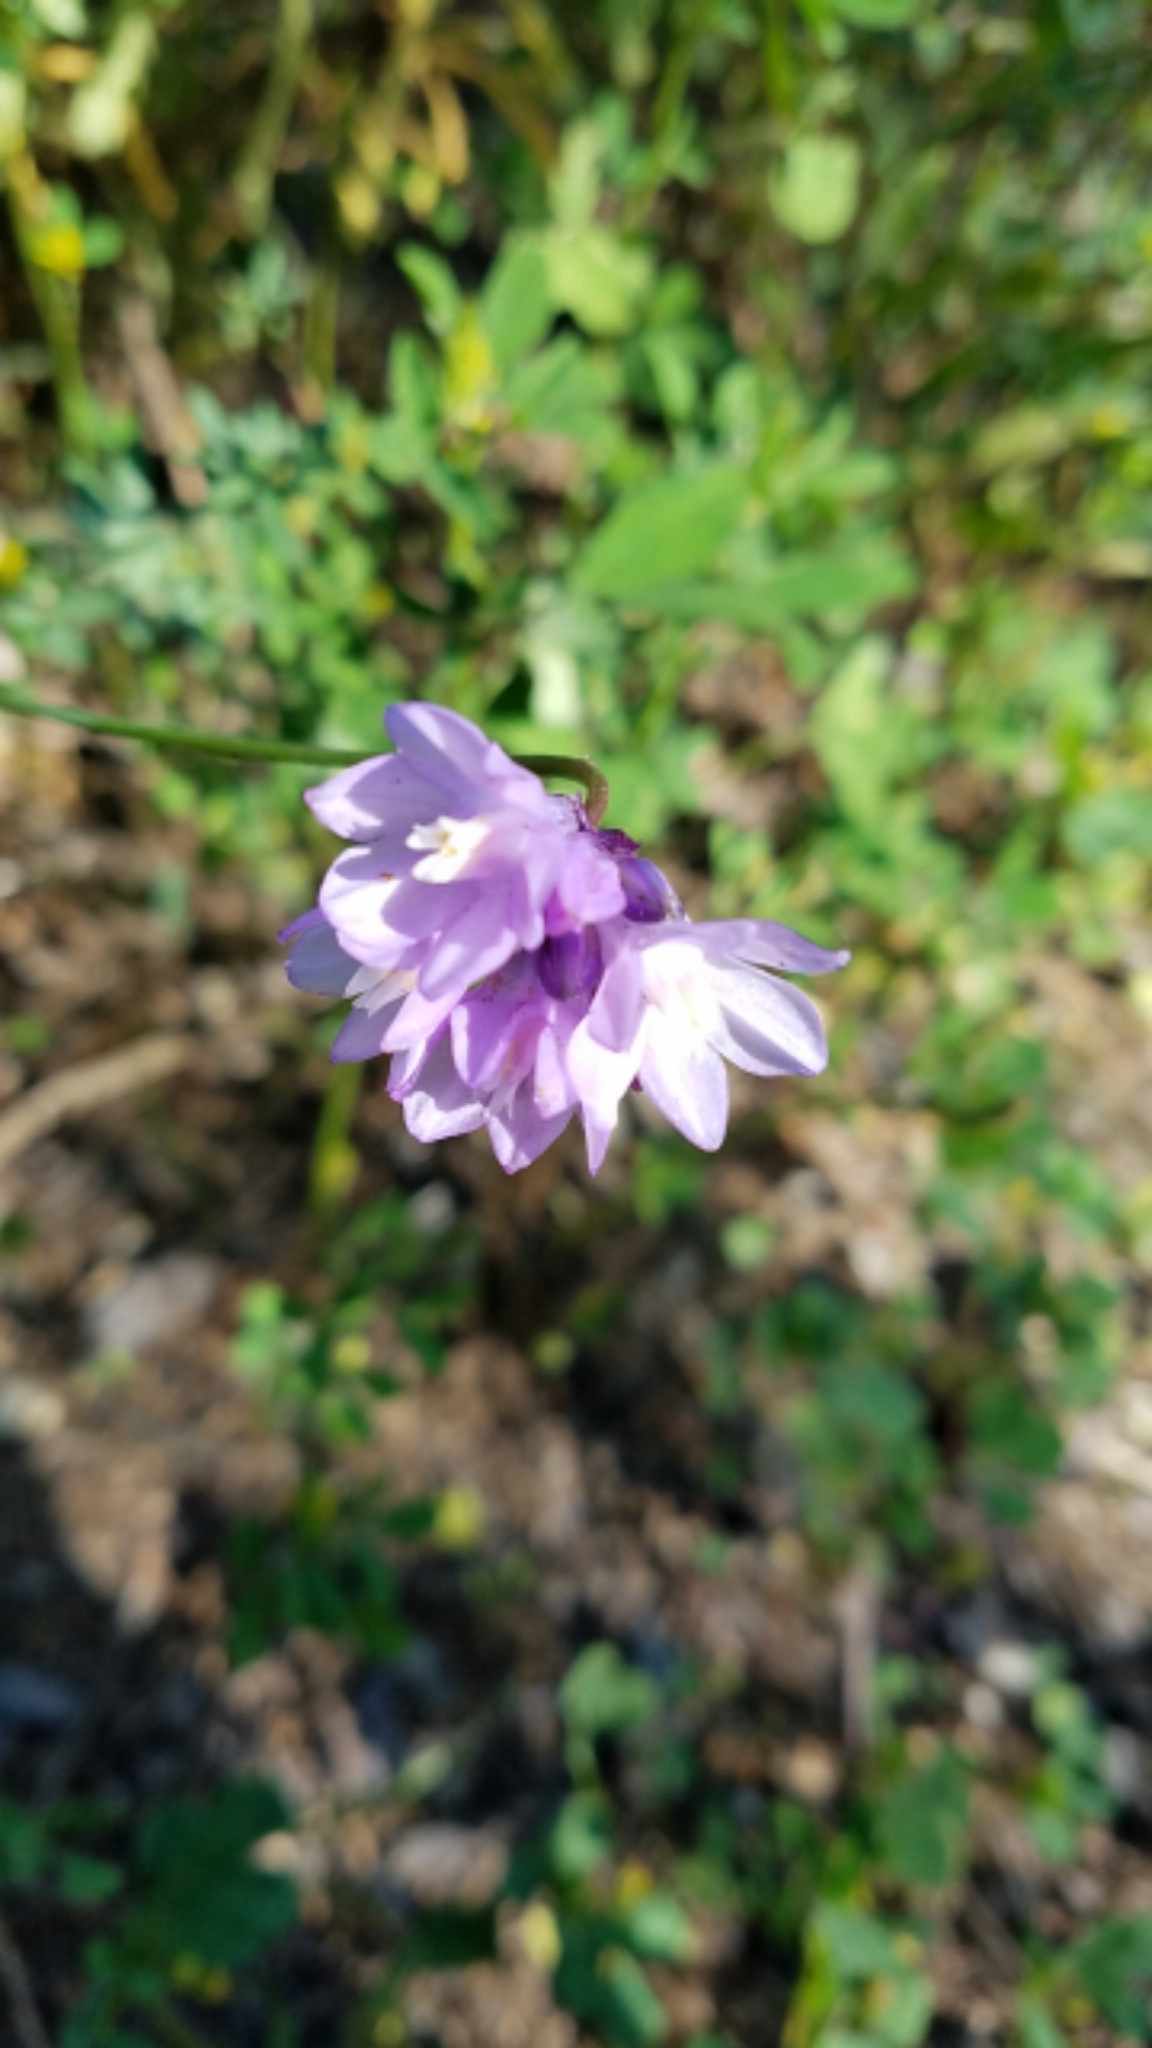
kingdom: Plantae
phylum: Tracheophyta
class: Liliopsida
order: Asparagales
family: Asparagaceae
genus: Dipterostemon
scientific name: Dipterostemon capitatus
